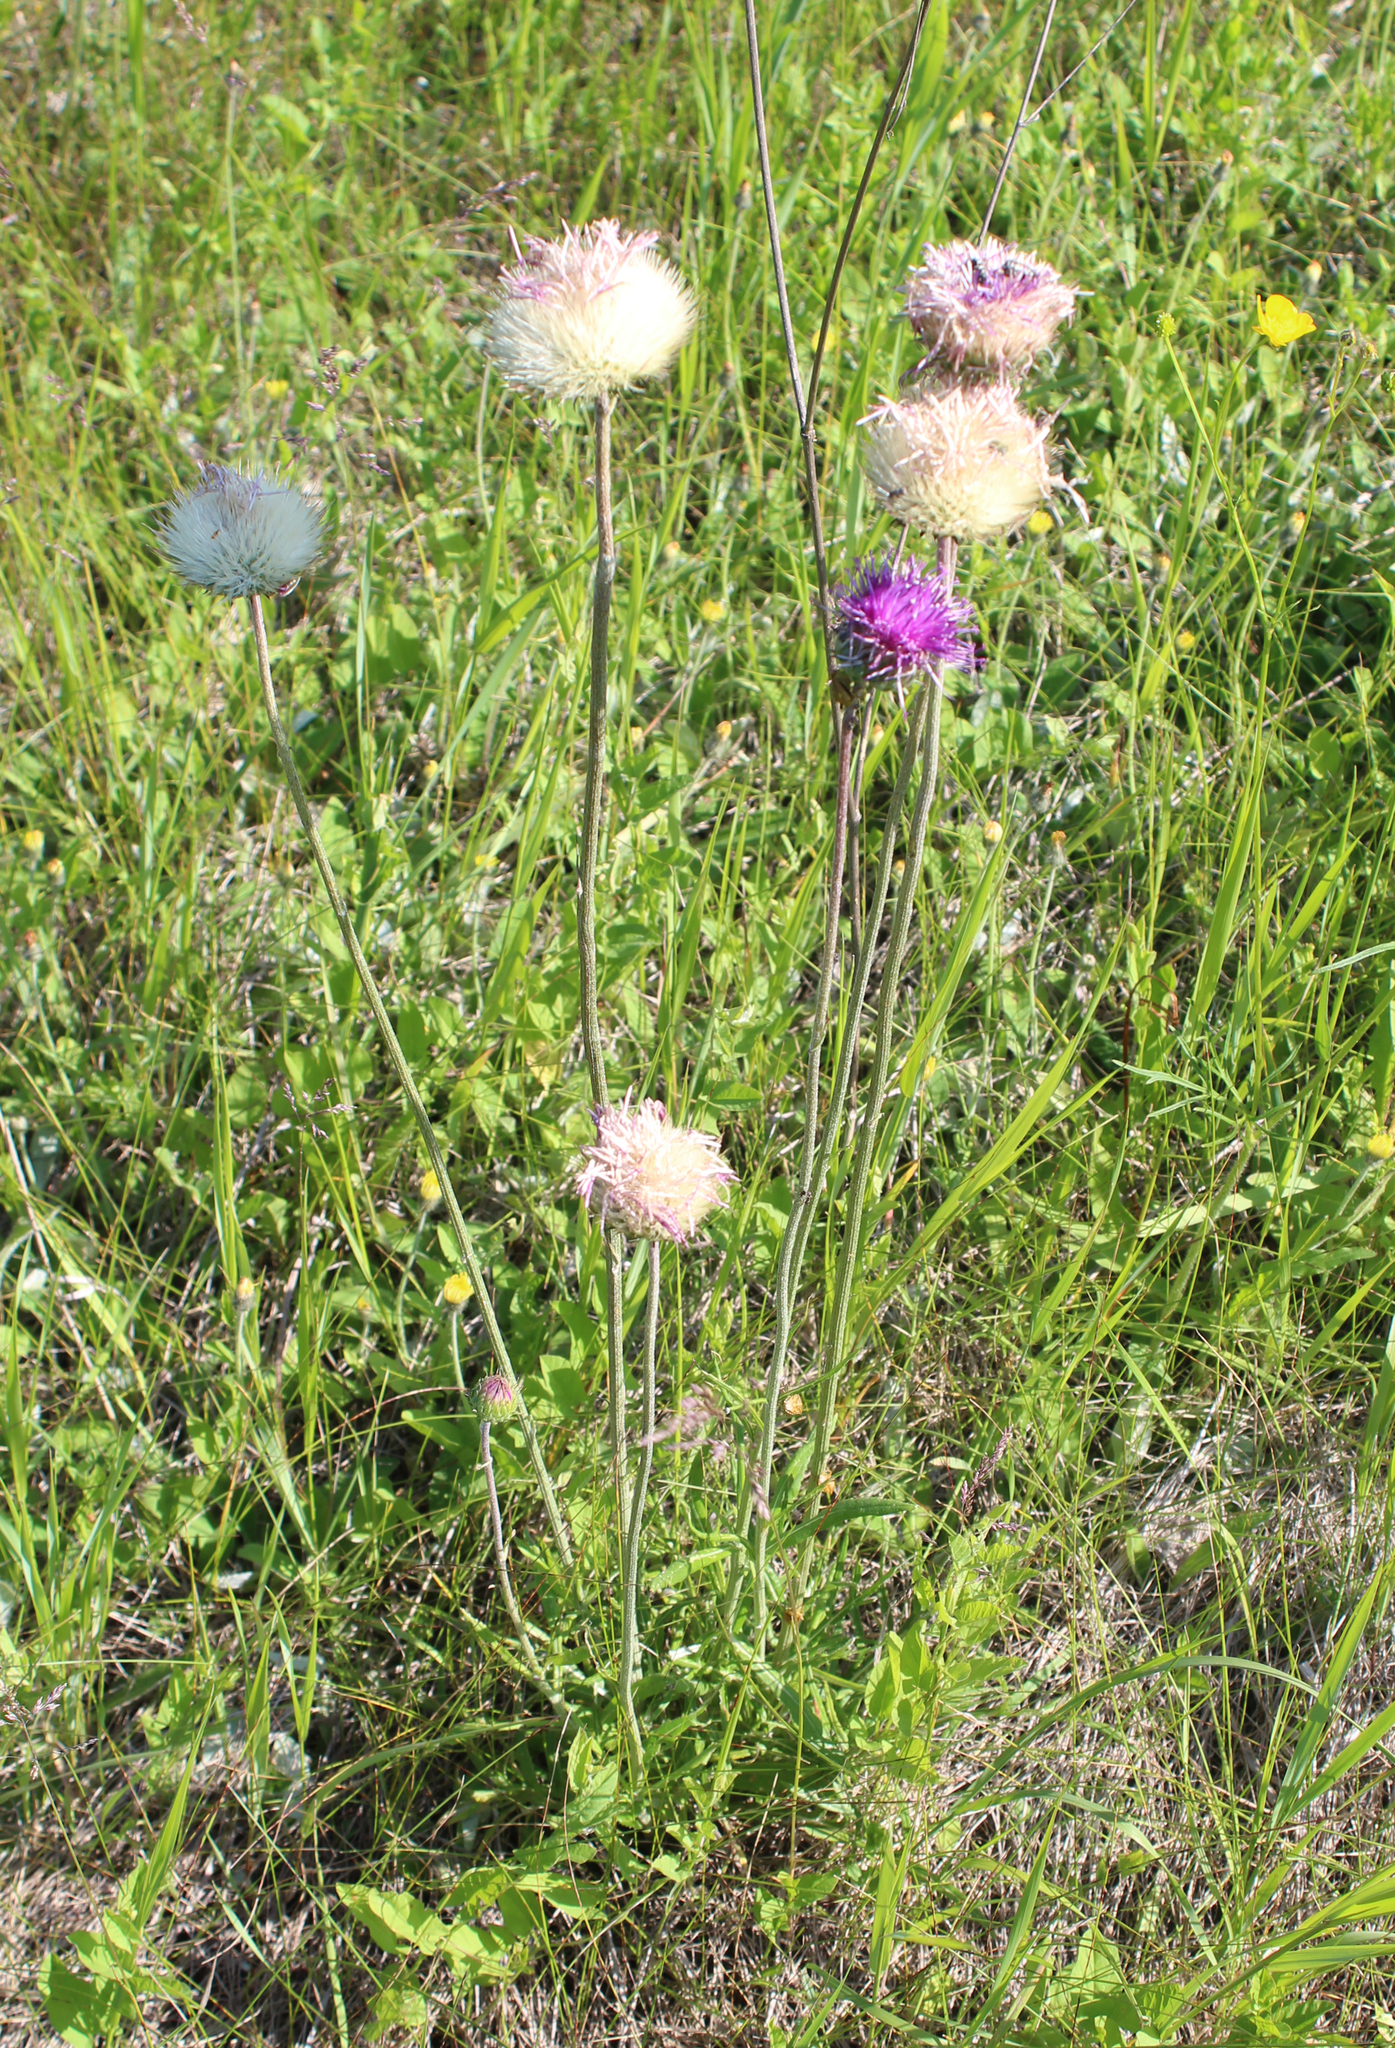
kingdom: Plantae
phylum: Tracheophyta
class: Magnoliopsida
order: Asterales
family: Asteraceae
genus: Jurinea
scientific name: Jurinea ledebourii
